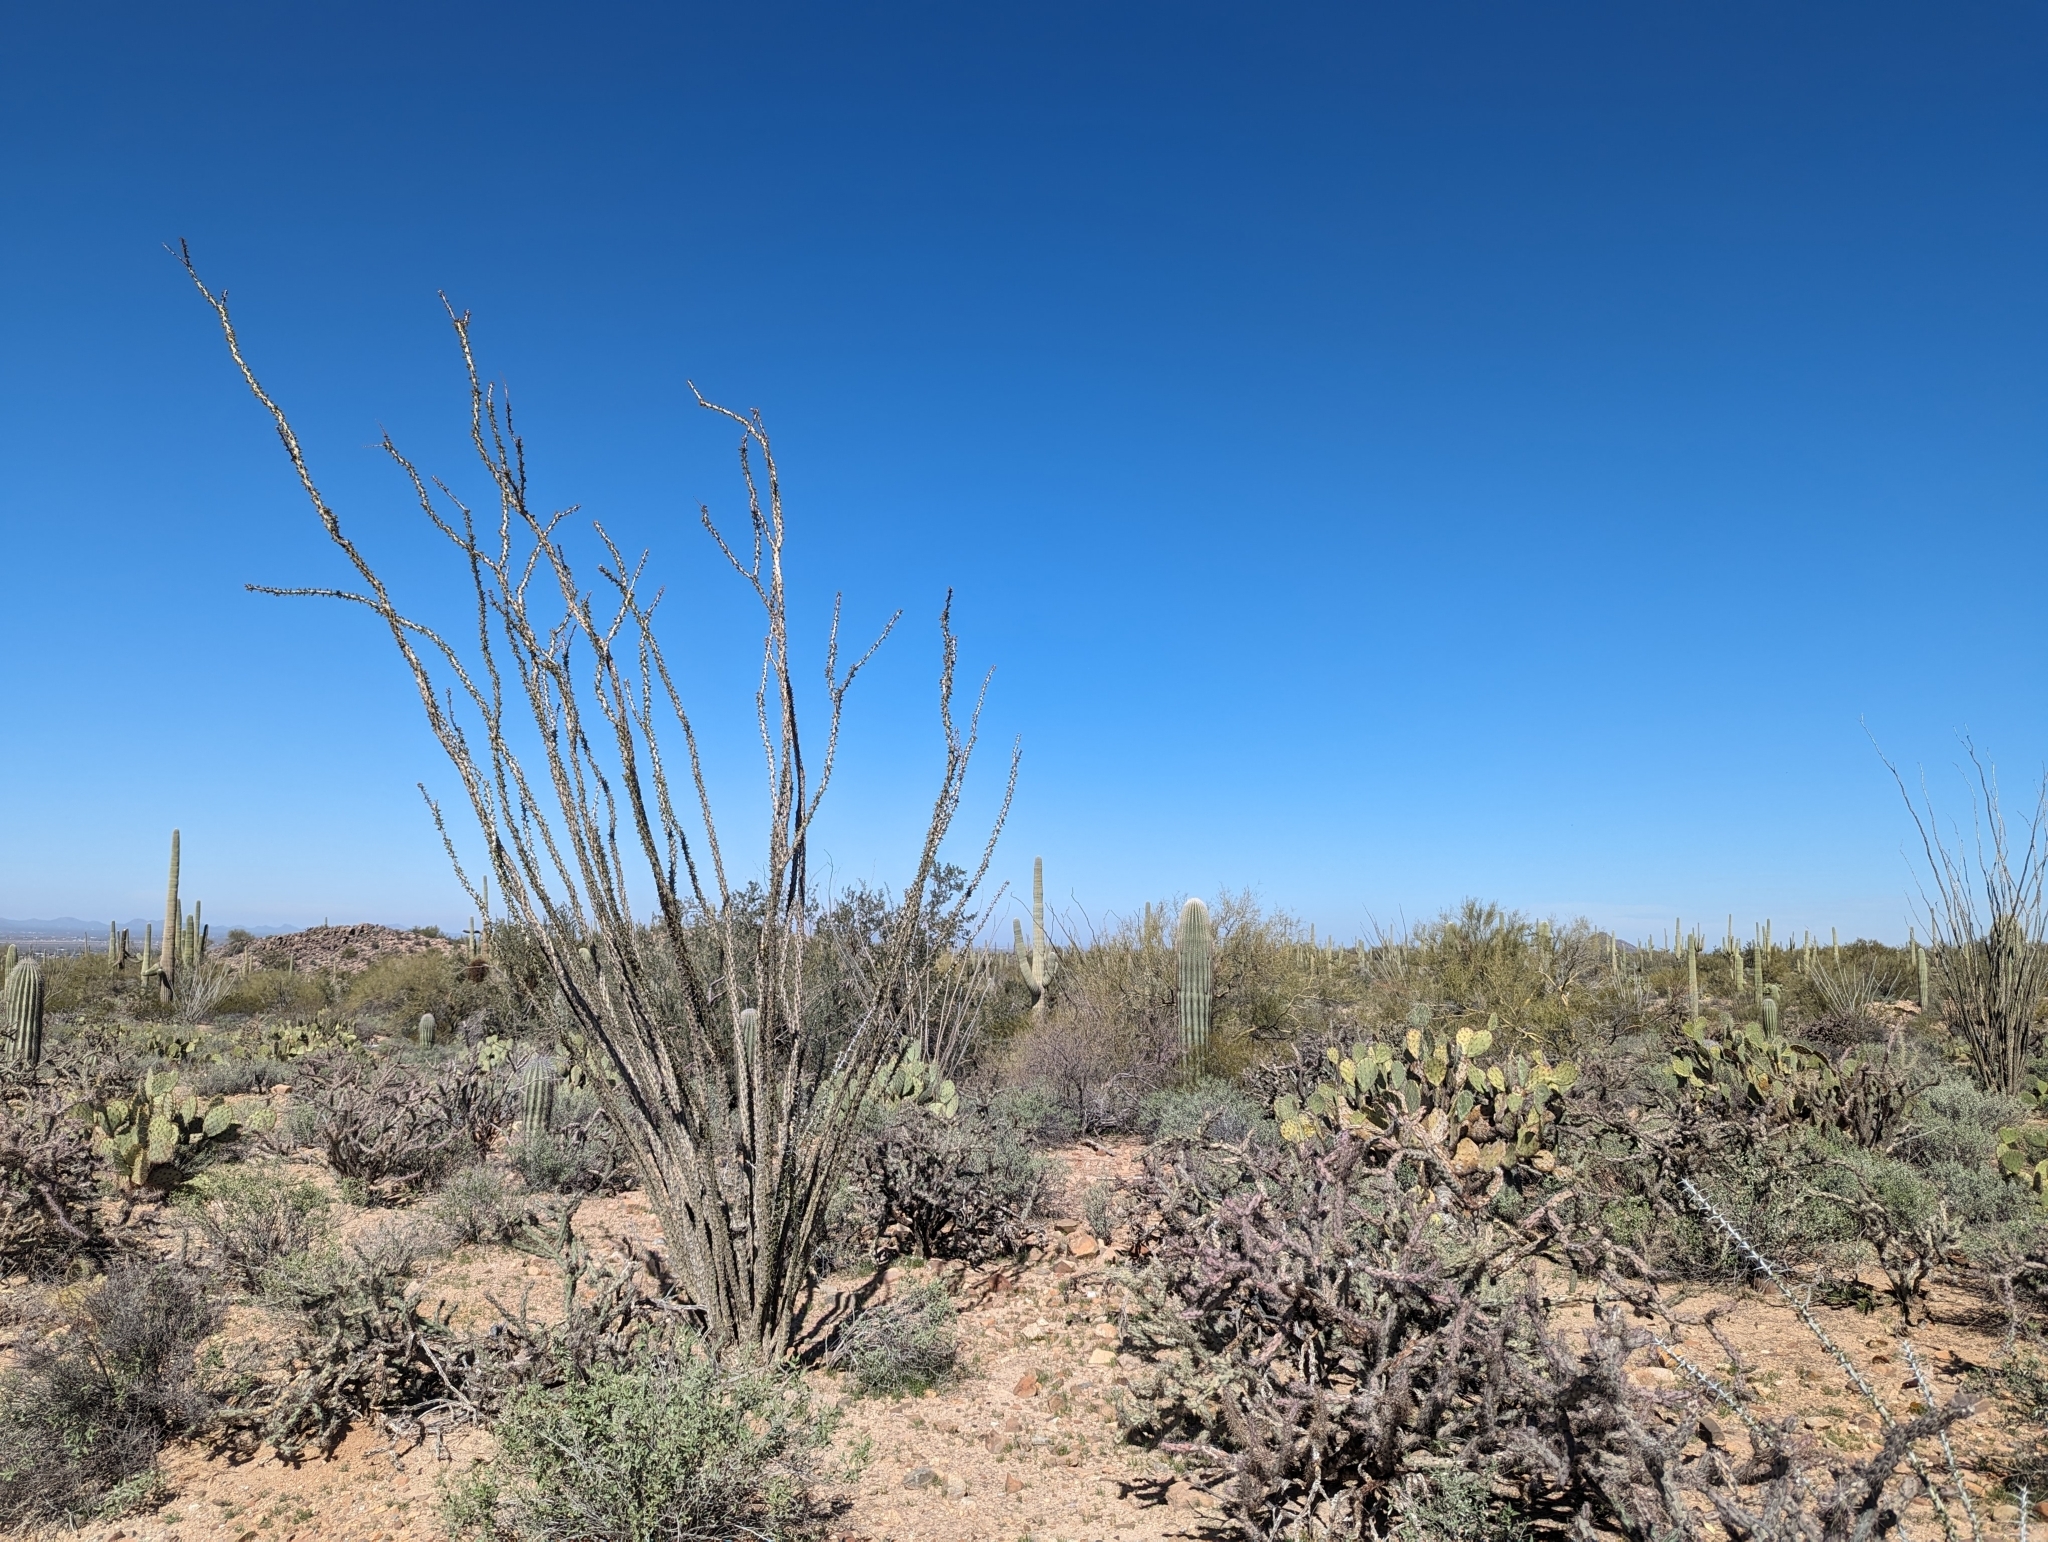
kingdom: Plantae
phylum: Tracheophyta
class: Magnoliopsida
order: Ericales
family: Fouquieriaceae
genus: Fouquieria
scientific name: Fouquieria splendens
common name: Vine-cactus
